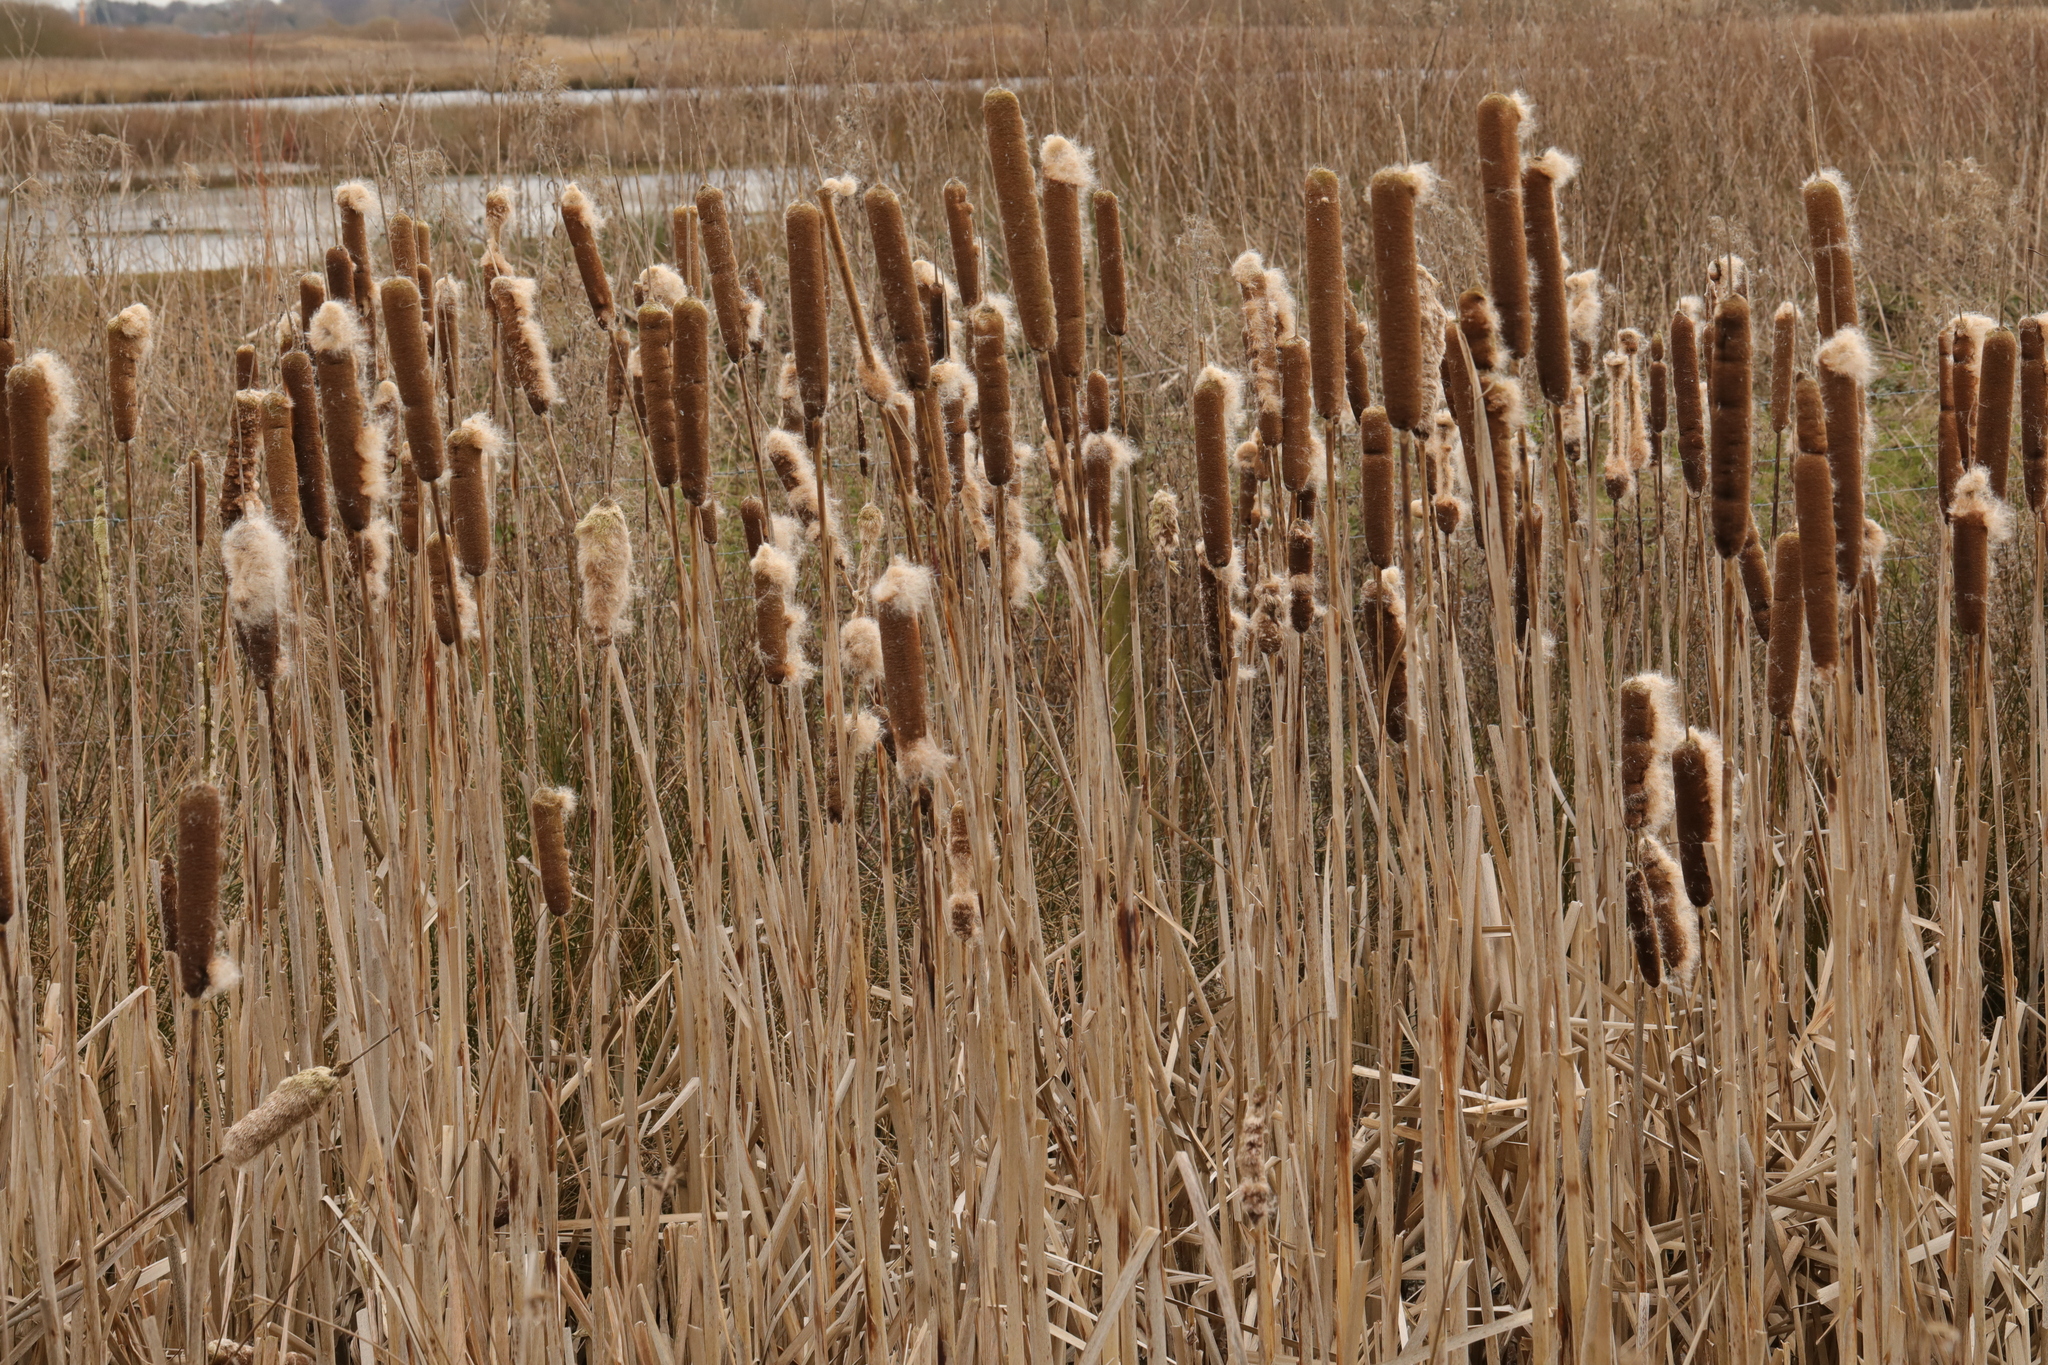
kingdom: Plantae
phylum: Tracheophyta
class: Liliopsida
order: Poales
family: Typhaceae
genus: Typha
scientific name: Typha latifolia
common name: Broadleaf cattail
